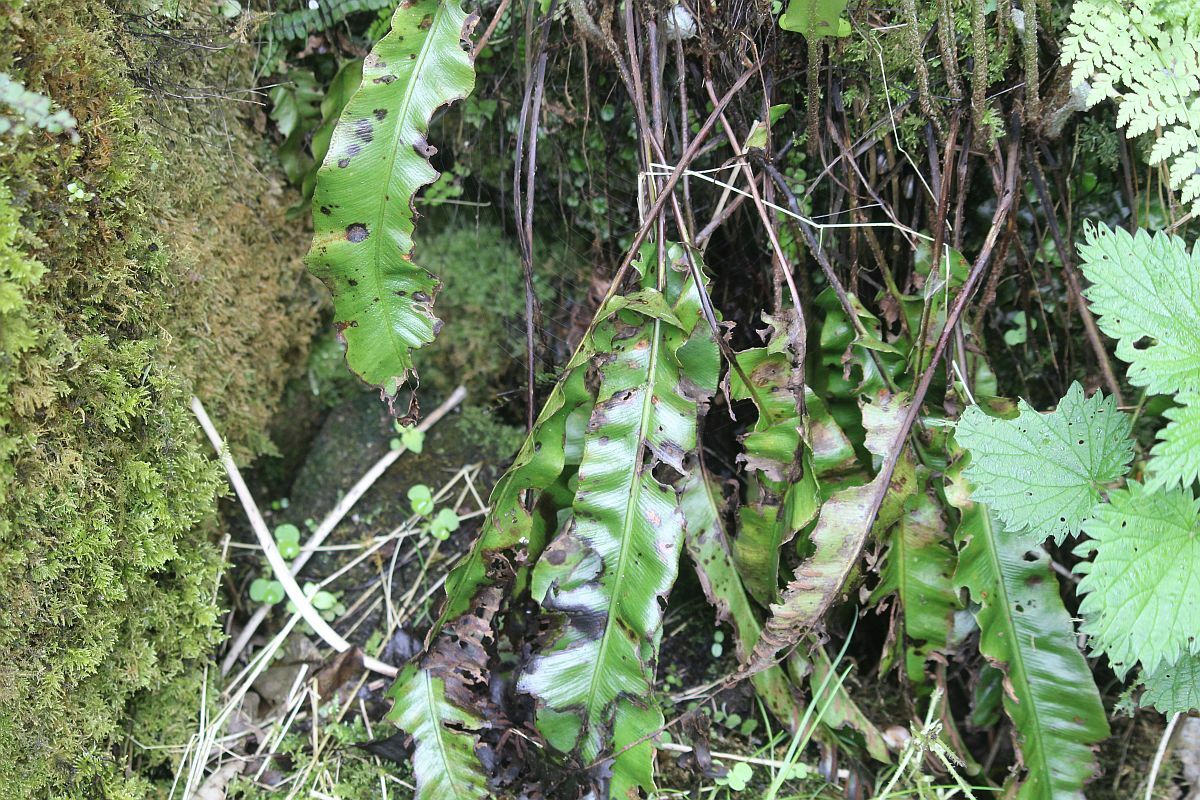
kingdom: Plantae
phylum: Tracheophyta
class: Polypodiopsida
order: Polypodiales
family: Aspleniaceae
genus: Asplenium
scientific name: Asplenium scolopendrium
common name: Hart's-tongue fern
